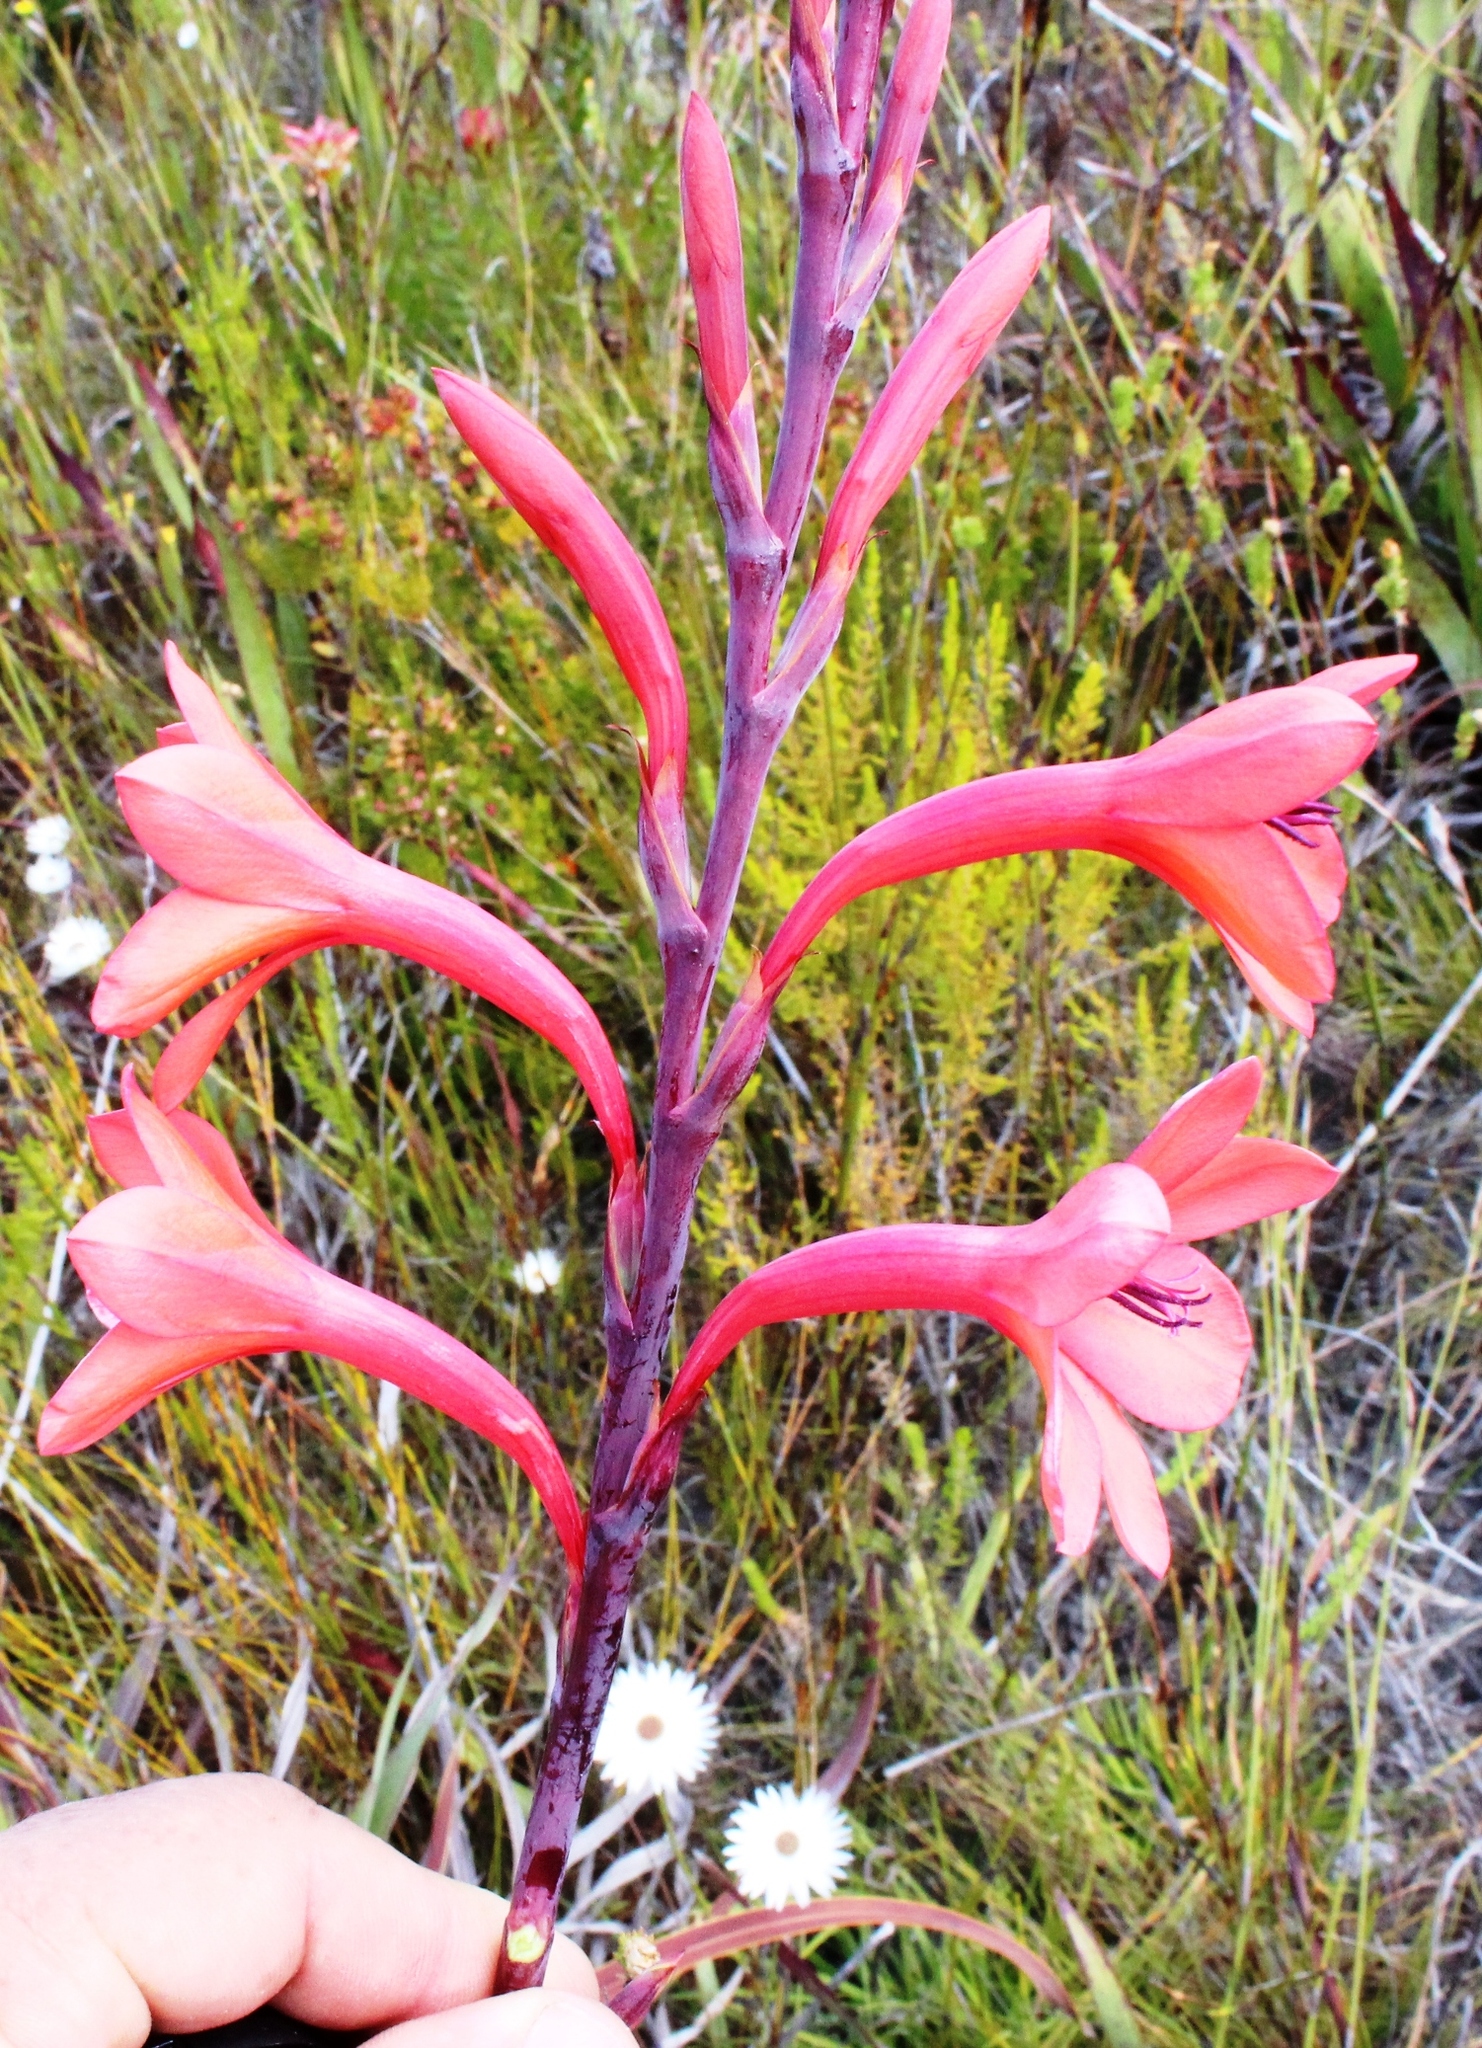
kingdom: Plantae
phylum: Tracheophyta
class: Liliopsida
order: Asparagales
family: Iridaceae
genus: Watsonia
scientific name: Watsonia fourcadei
